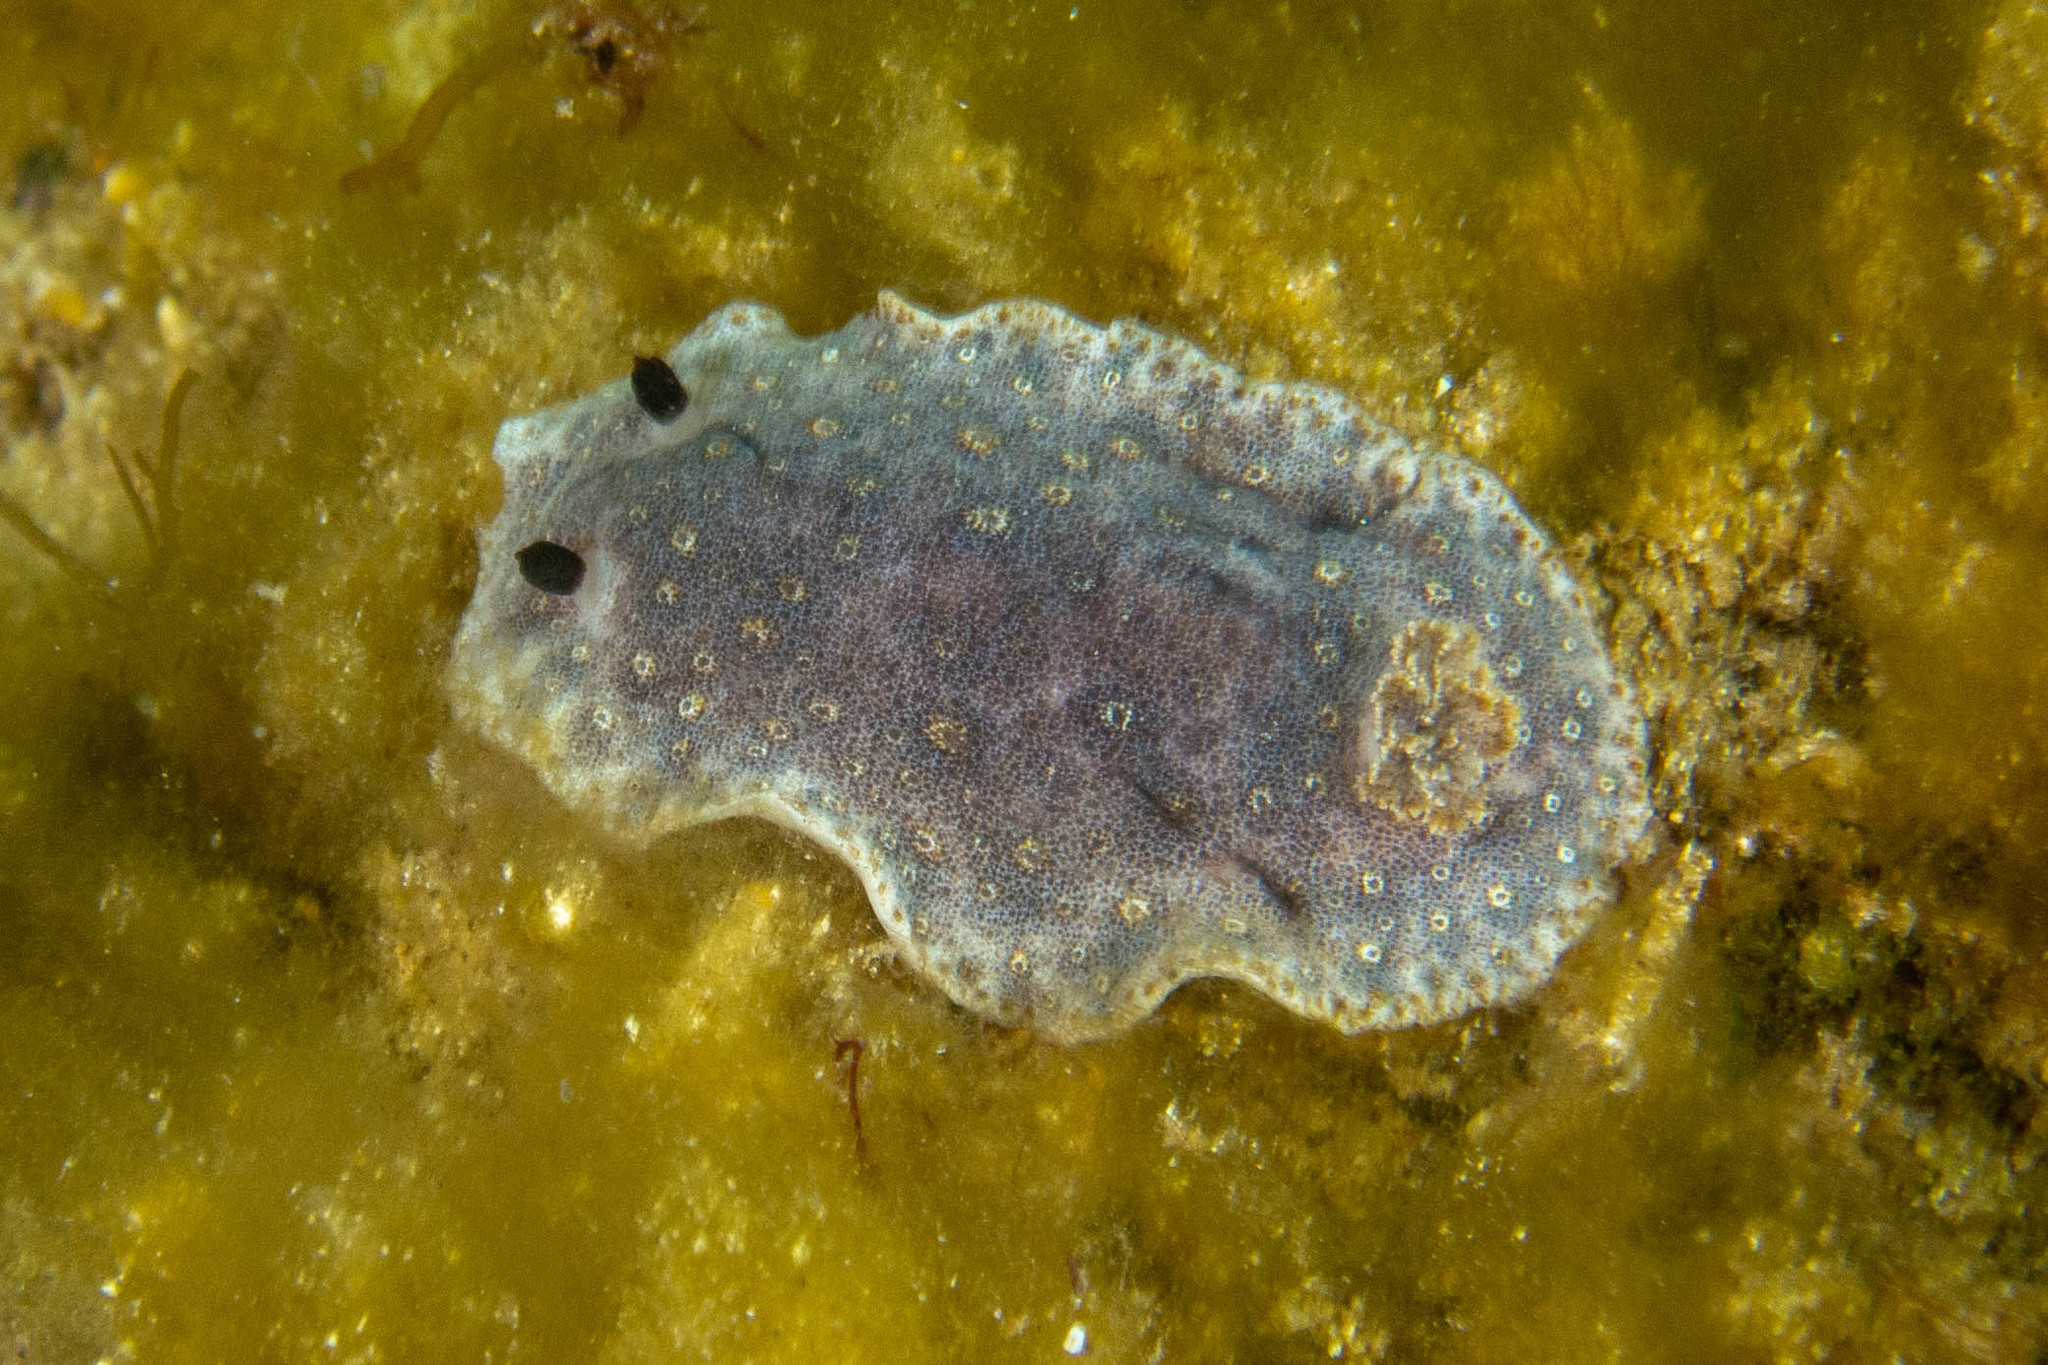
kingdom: Animalia
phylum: Mollusca
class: Gastropoda
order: Nudibranchia
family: Discodorididae
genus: Paradoris
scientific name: Paradoris dubia
